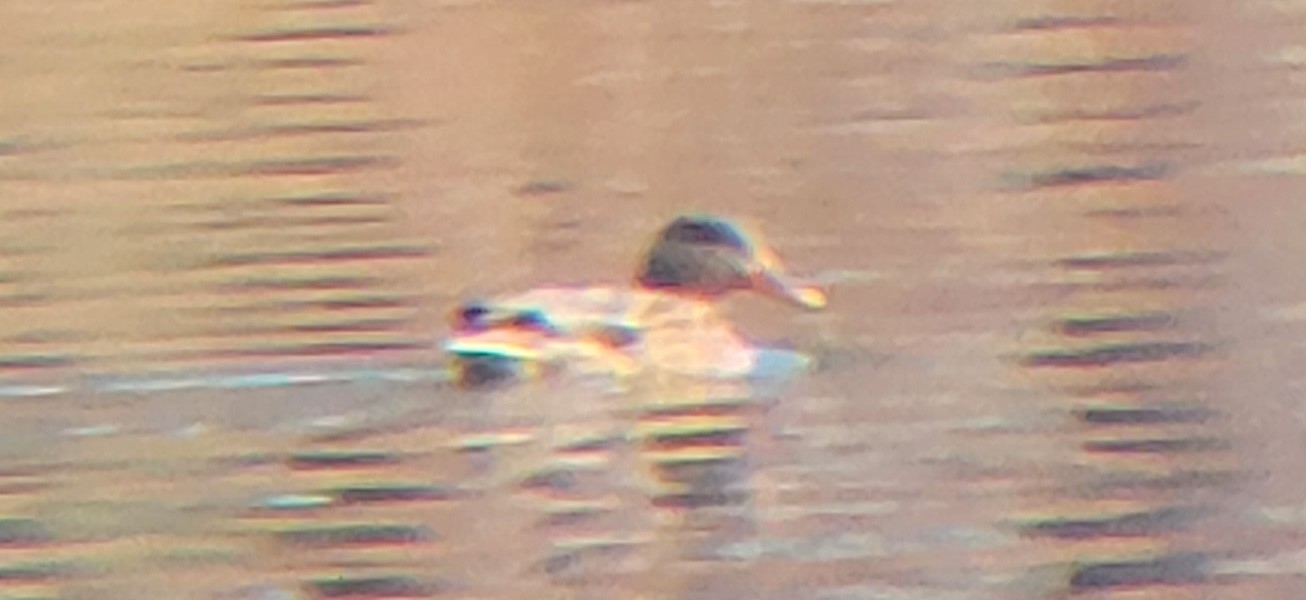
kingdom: Animalia
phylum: Chordata
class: Aves
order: Anseriformes
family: Anatidae
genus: Anas
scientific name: Anas platyrhynchos
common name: Mallard
